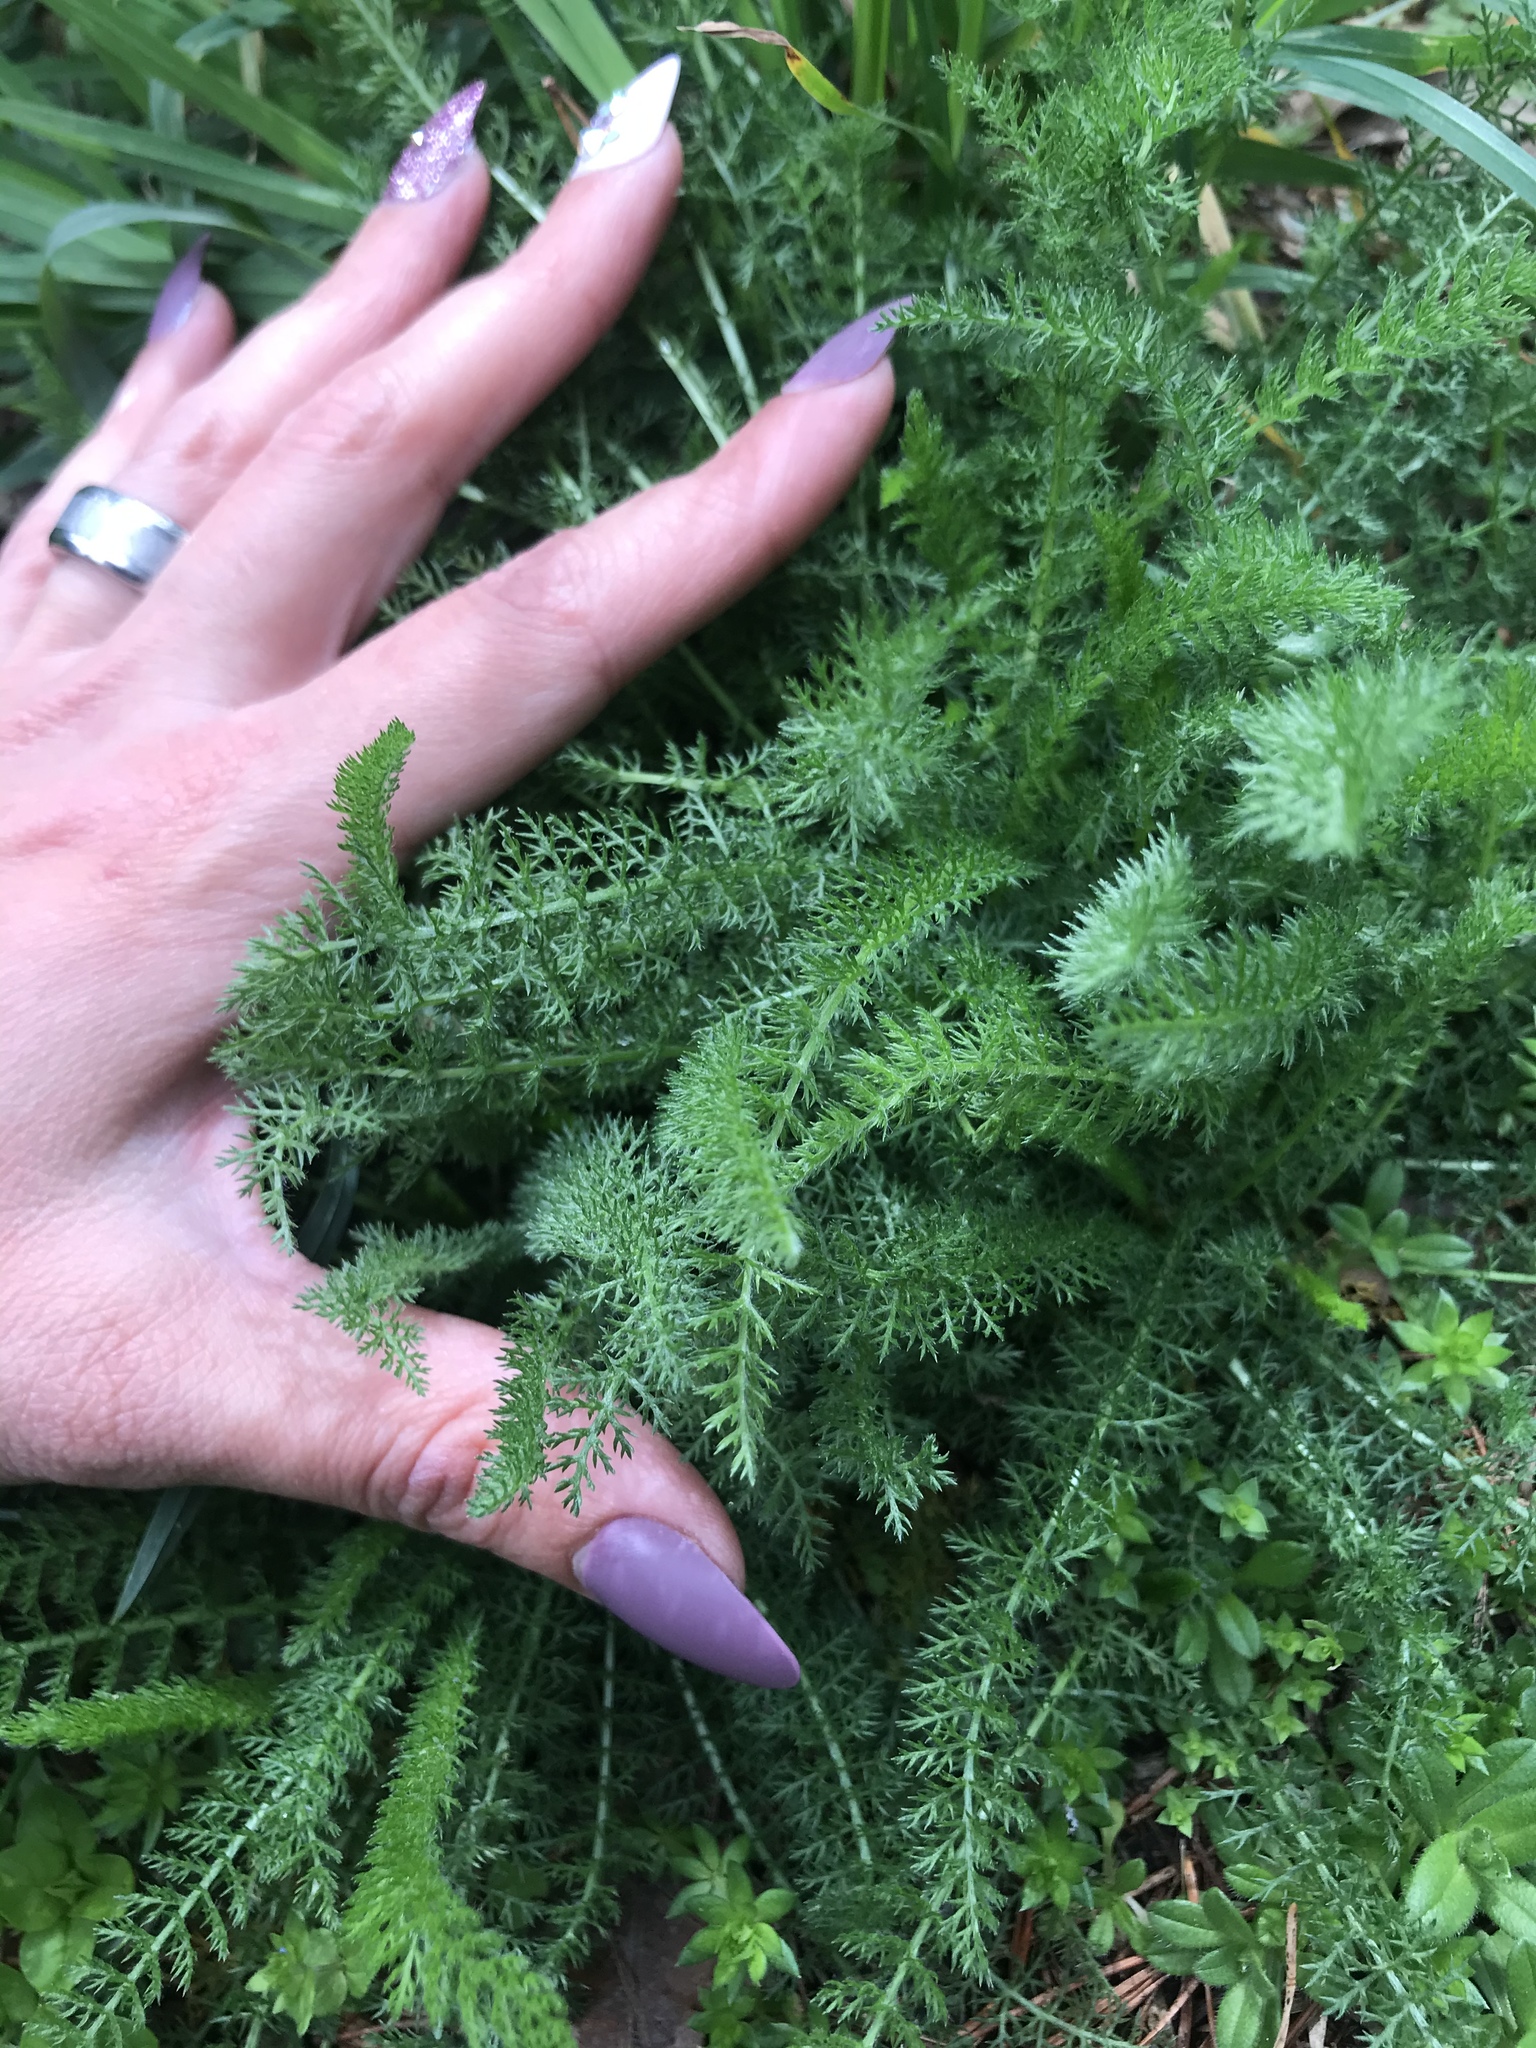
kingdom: Plantae
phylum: Tracheophyta
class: Magnoliopsida
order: Asterales
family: Asteraceae
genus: Achillea
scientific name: Achillea millefolium
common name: Yarrow
